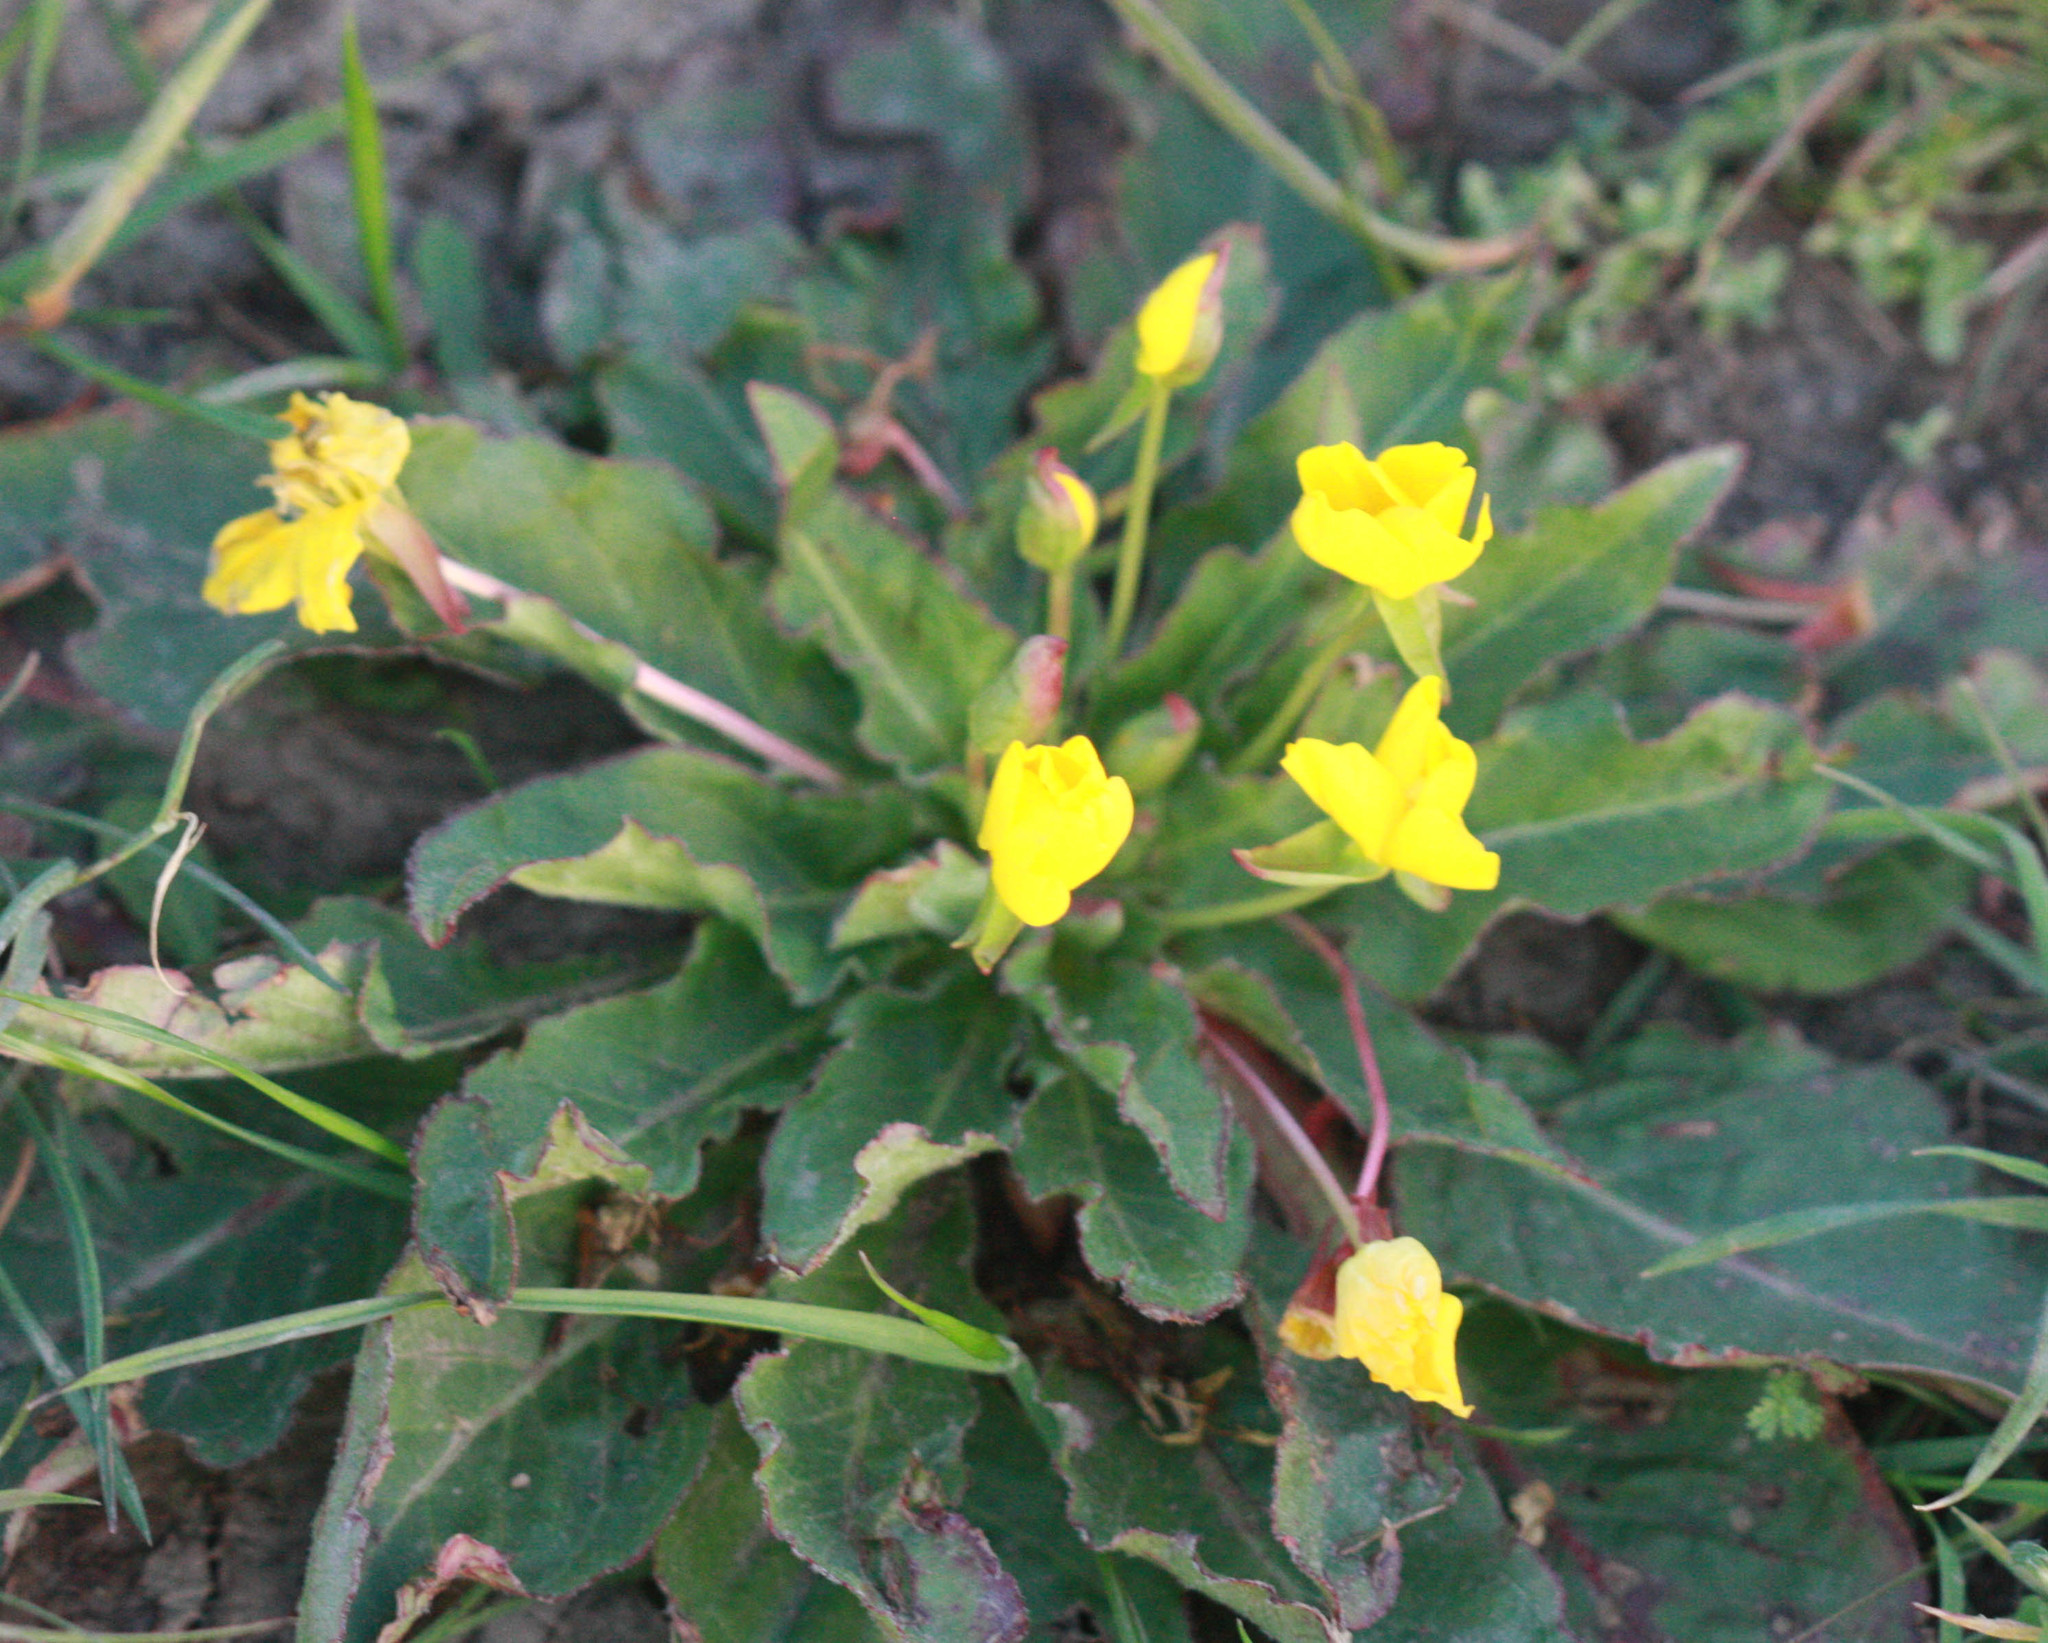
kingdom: Plantae
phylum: Tracheophyta
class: Magnoliopsida
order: Myrtales
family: Onagraceae
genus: Taraxia
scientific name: Taraxia ovata
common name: Goldeneggs
